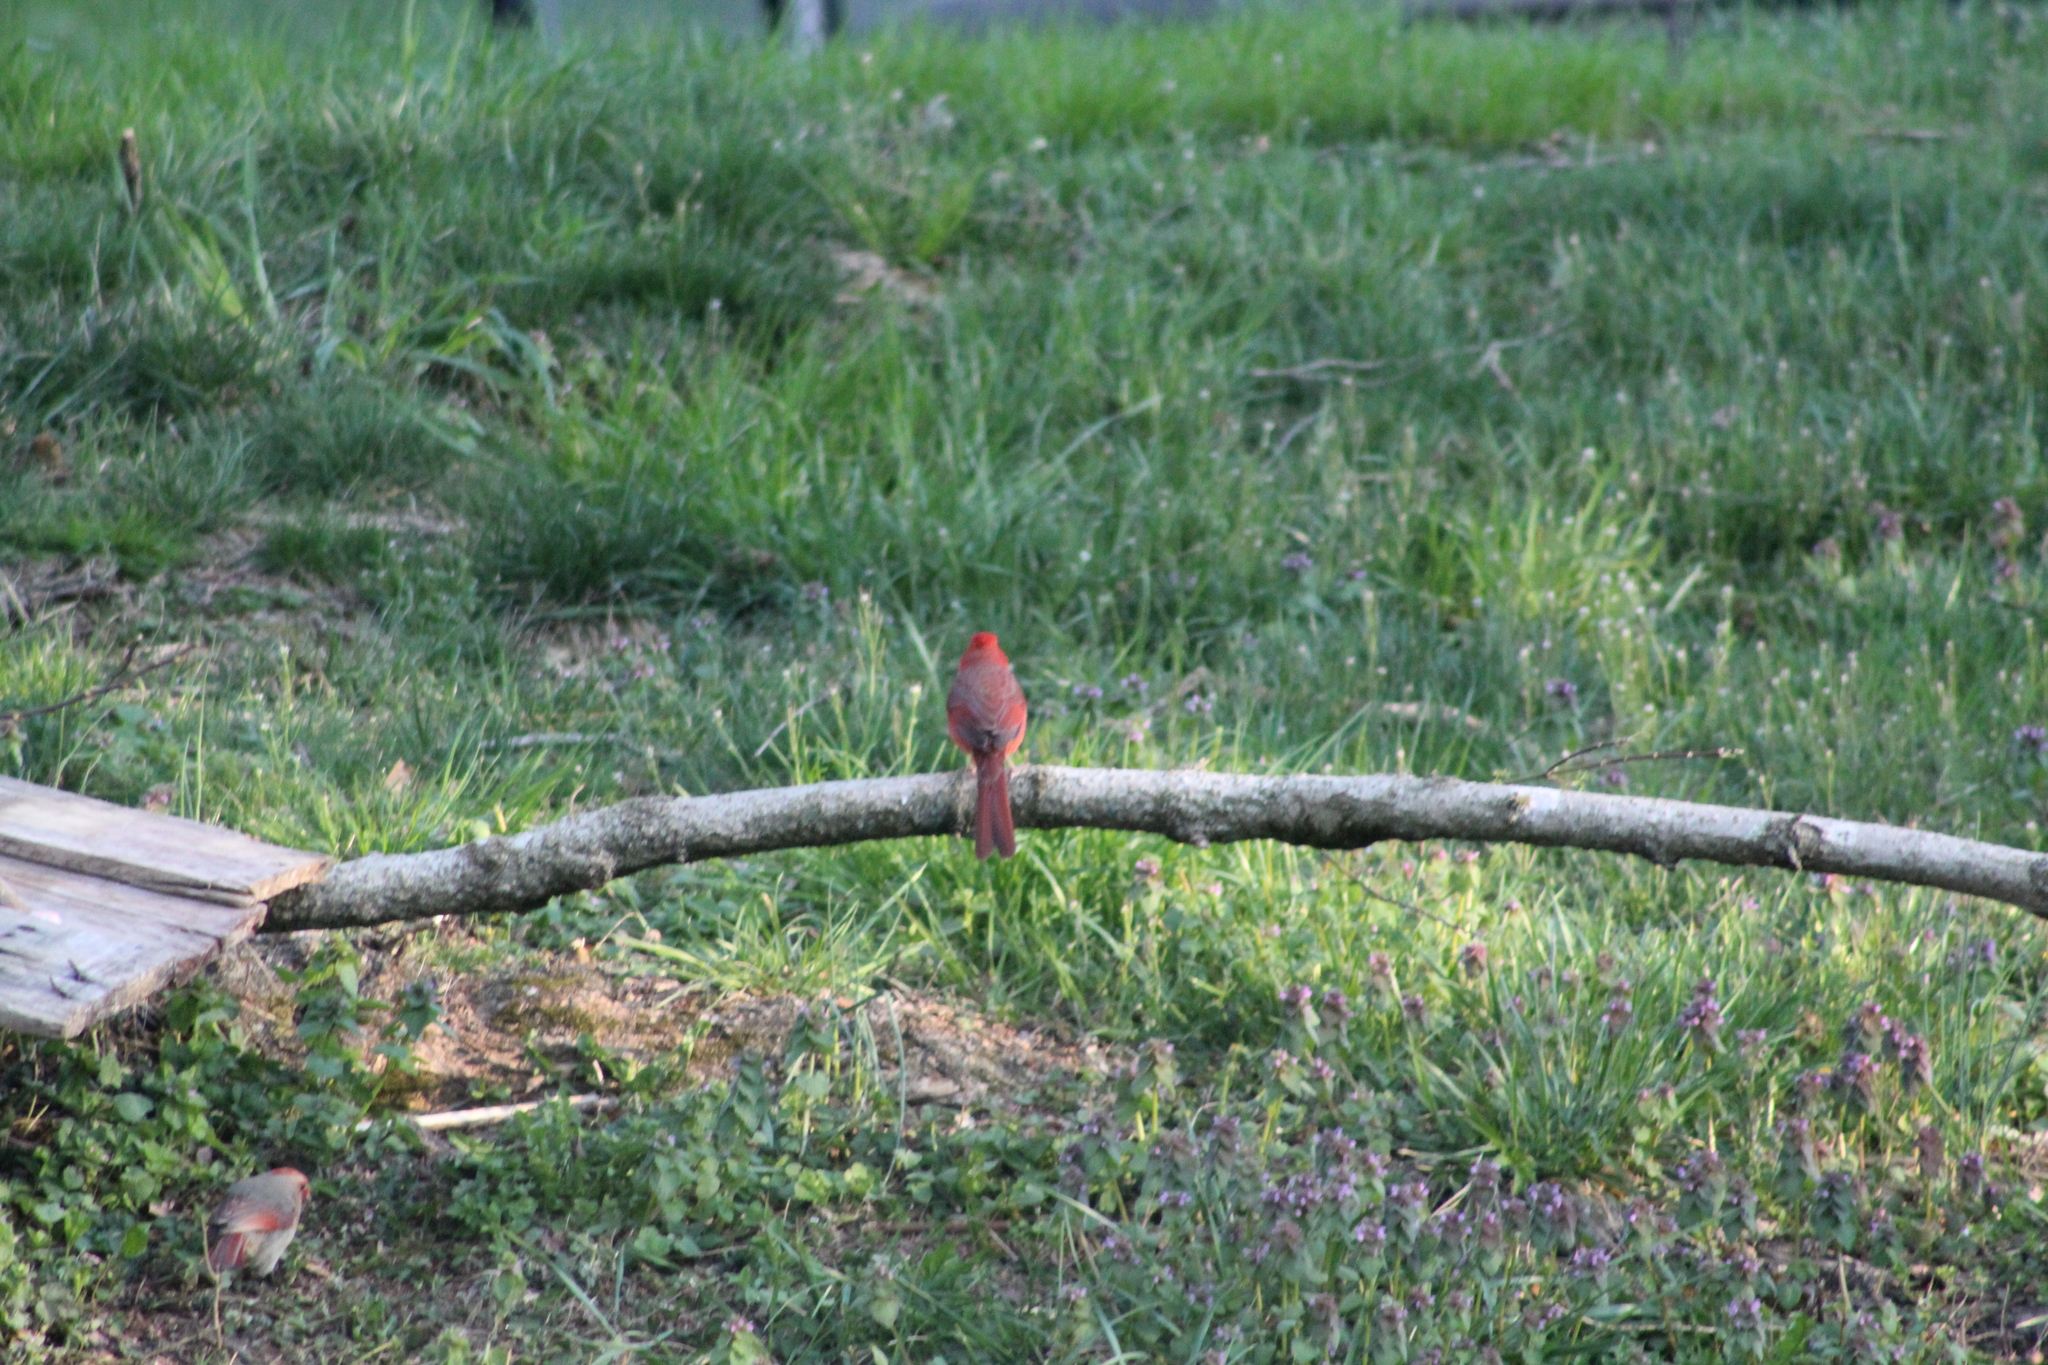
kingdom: Animalia
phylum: Chordata
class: Aves
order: Passeriformes
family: Cardinalidae
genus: Cardinalis
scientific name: Cardinalis cardinalis
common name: Northern cardinal
